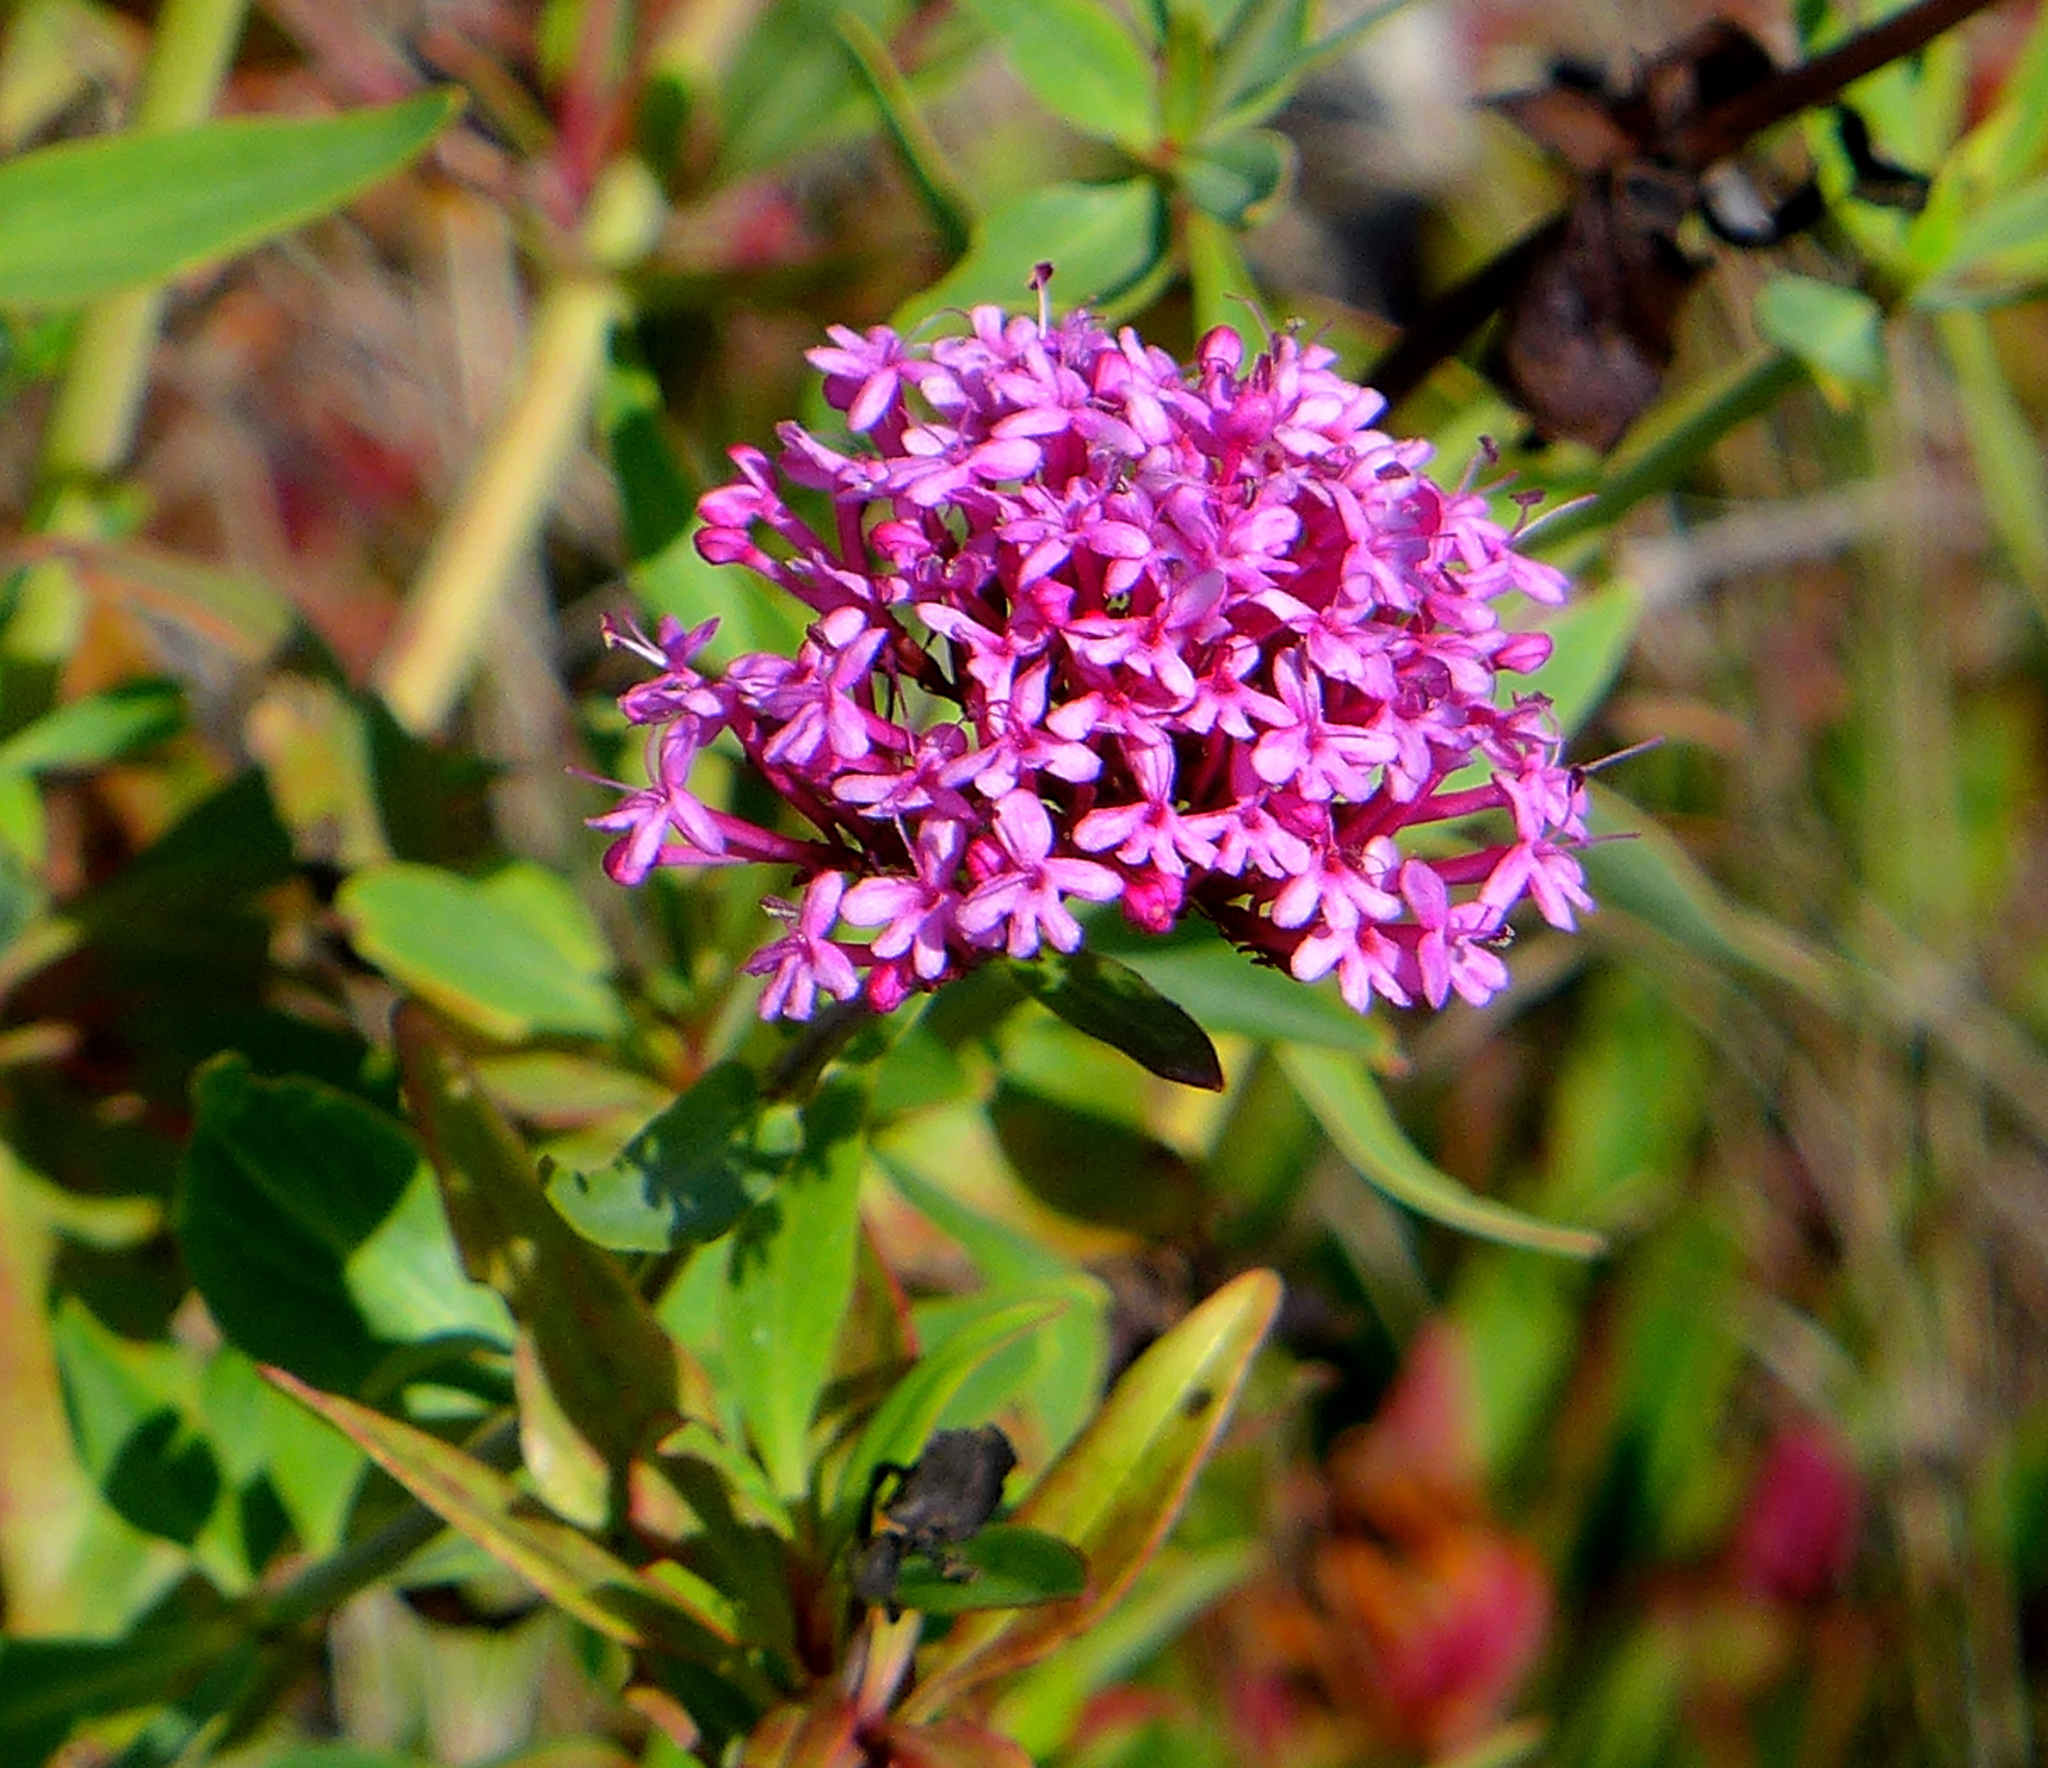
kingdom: Plantae
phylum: Tracheophyta
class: Magnoliopsida
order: Dipsacales
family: Caprifoliaceae
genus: Centranthus
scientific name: Centranthus ruber
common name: Red valerian
